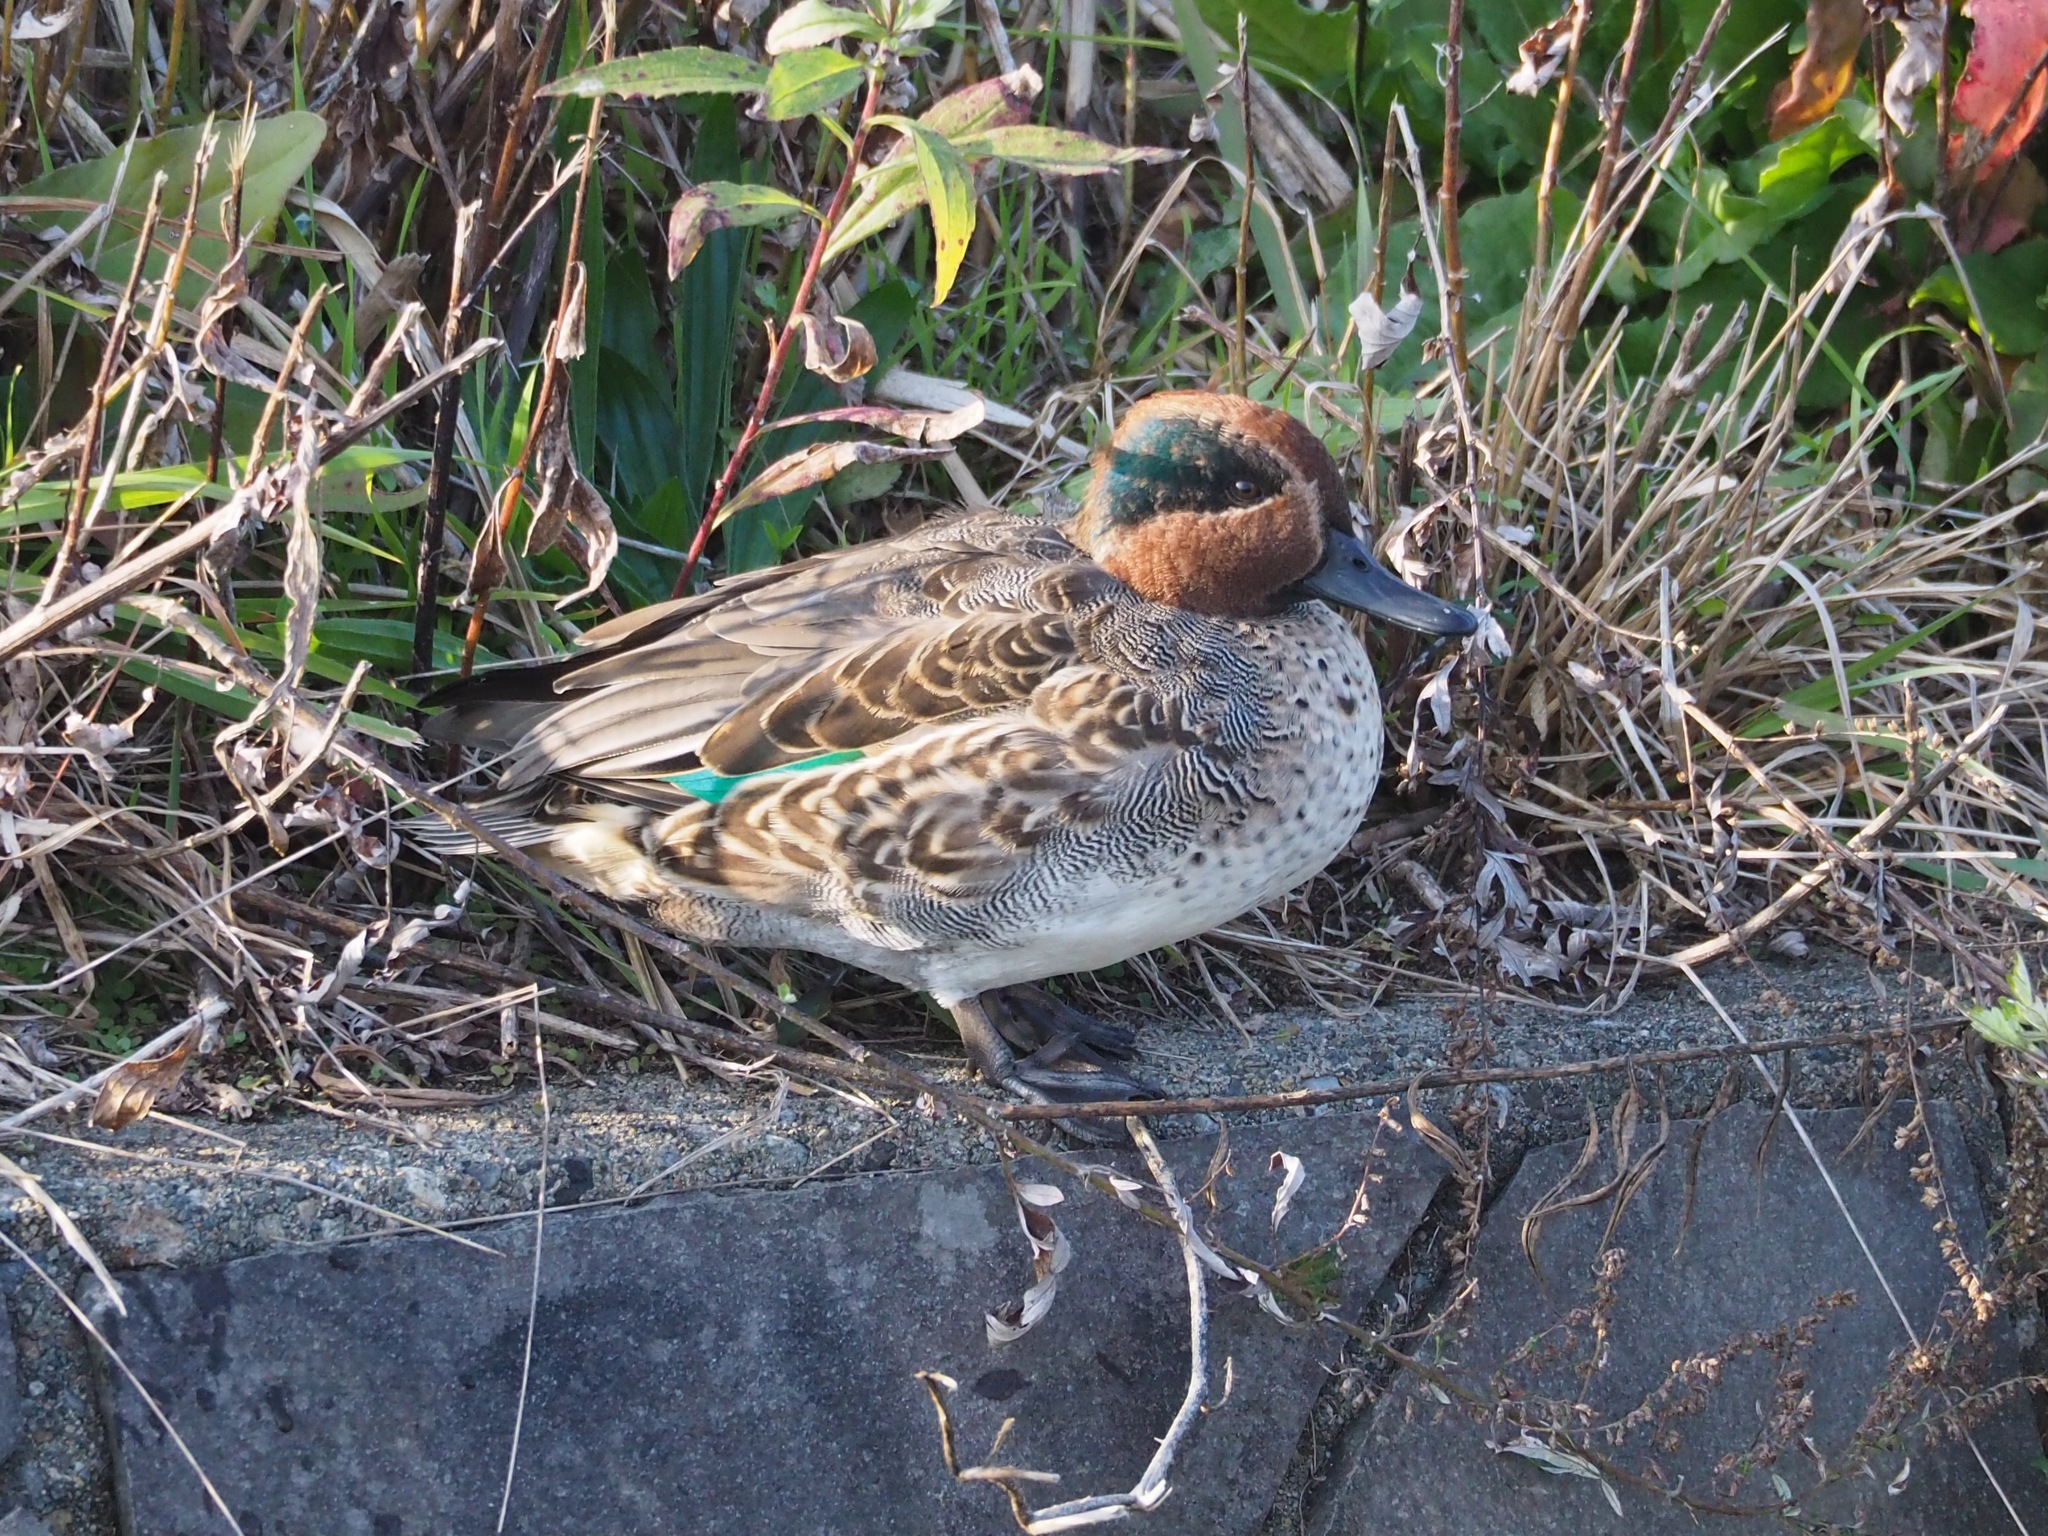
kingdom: Animalia
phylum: Chordata
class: Aves
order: Anseriformes
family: Anatidae
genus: Anas
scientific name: Anas crecca
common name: Eurasian teal
